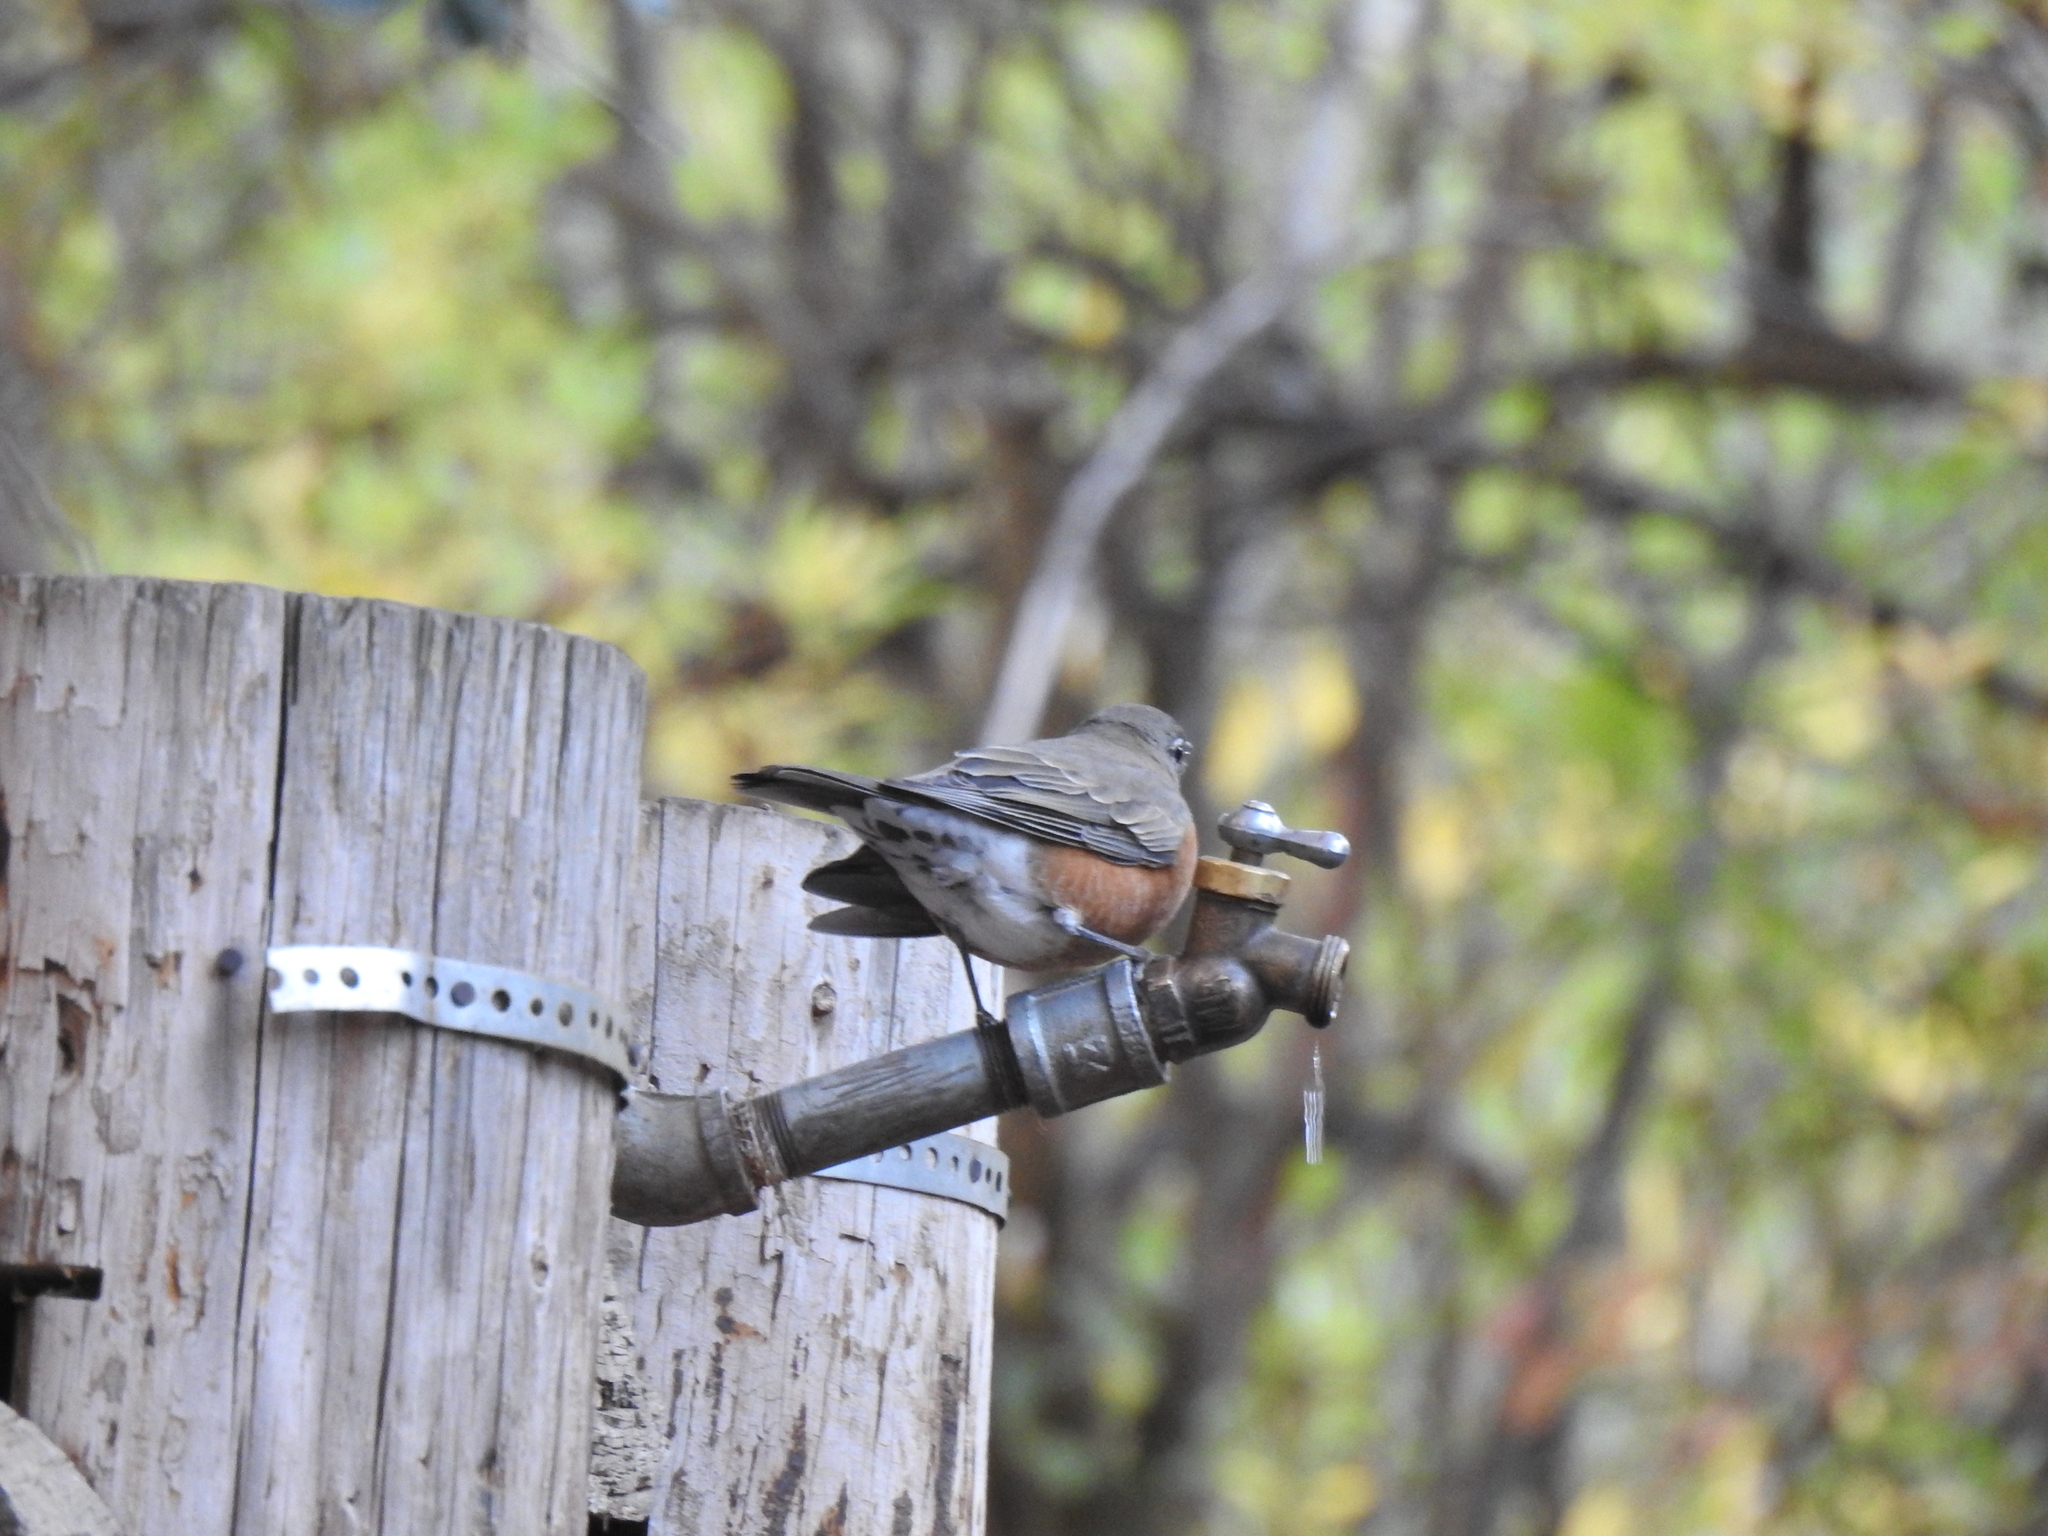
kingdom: Animalia
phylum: Chordata
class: Aves
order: Passeriformes
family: Turdidae
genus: Turdus
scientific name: Turdus migratorius
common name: American robin
